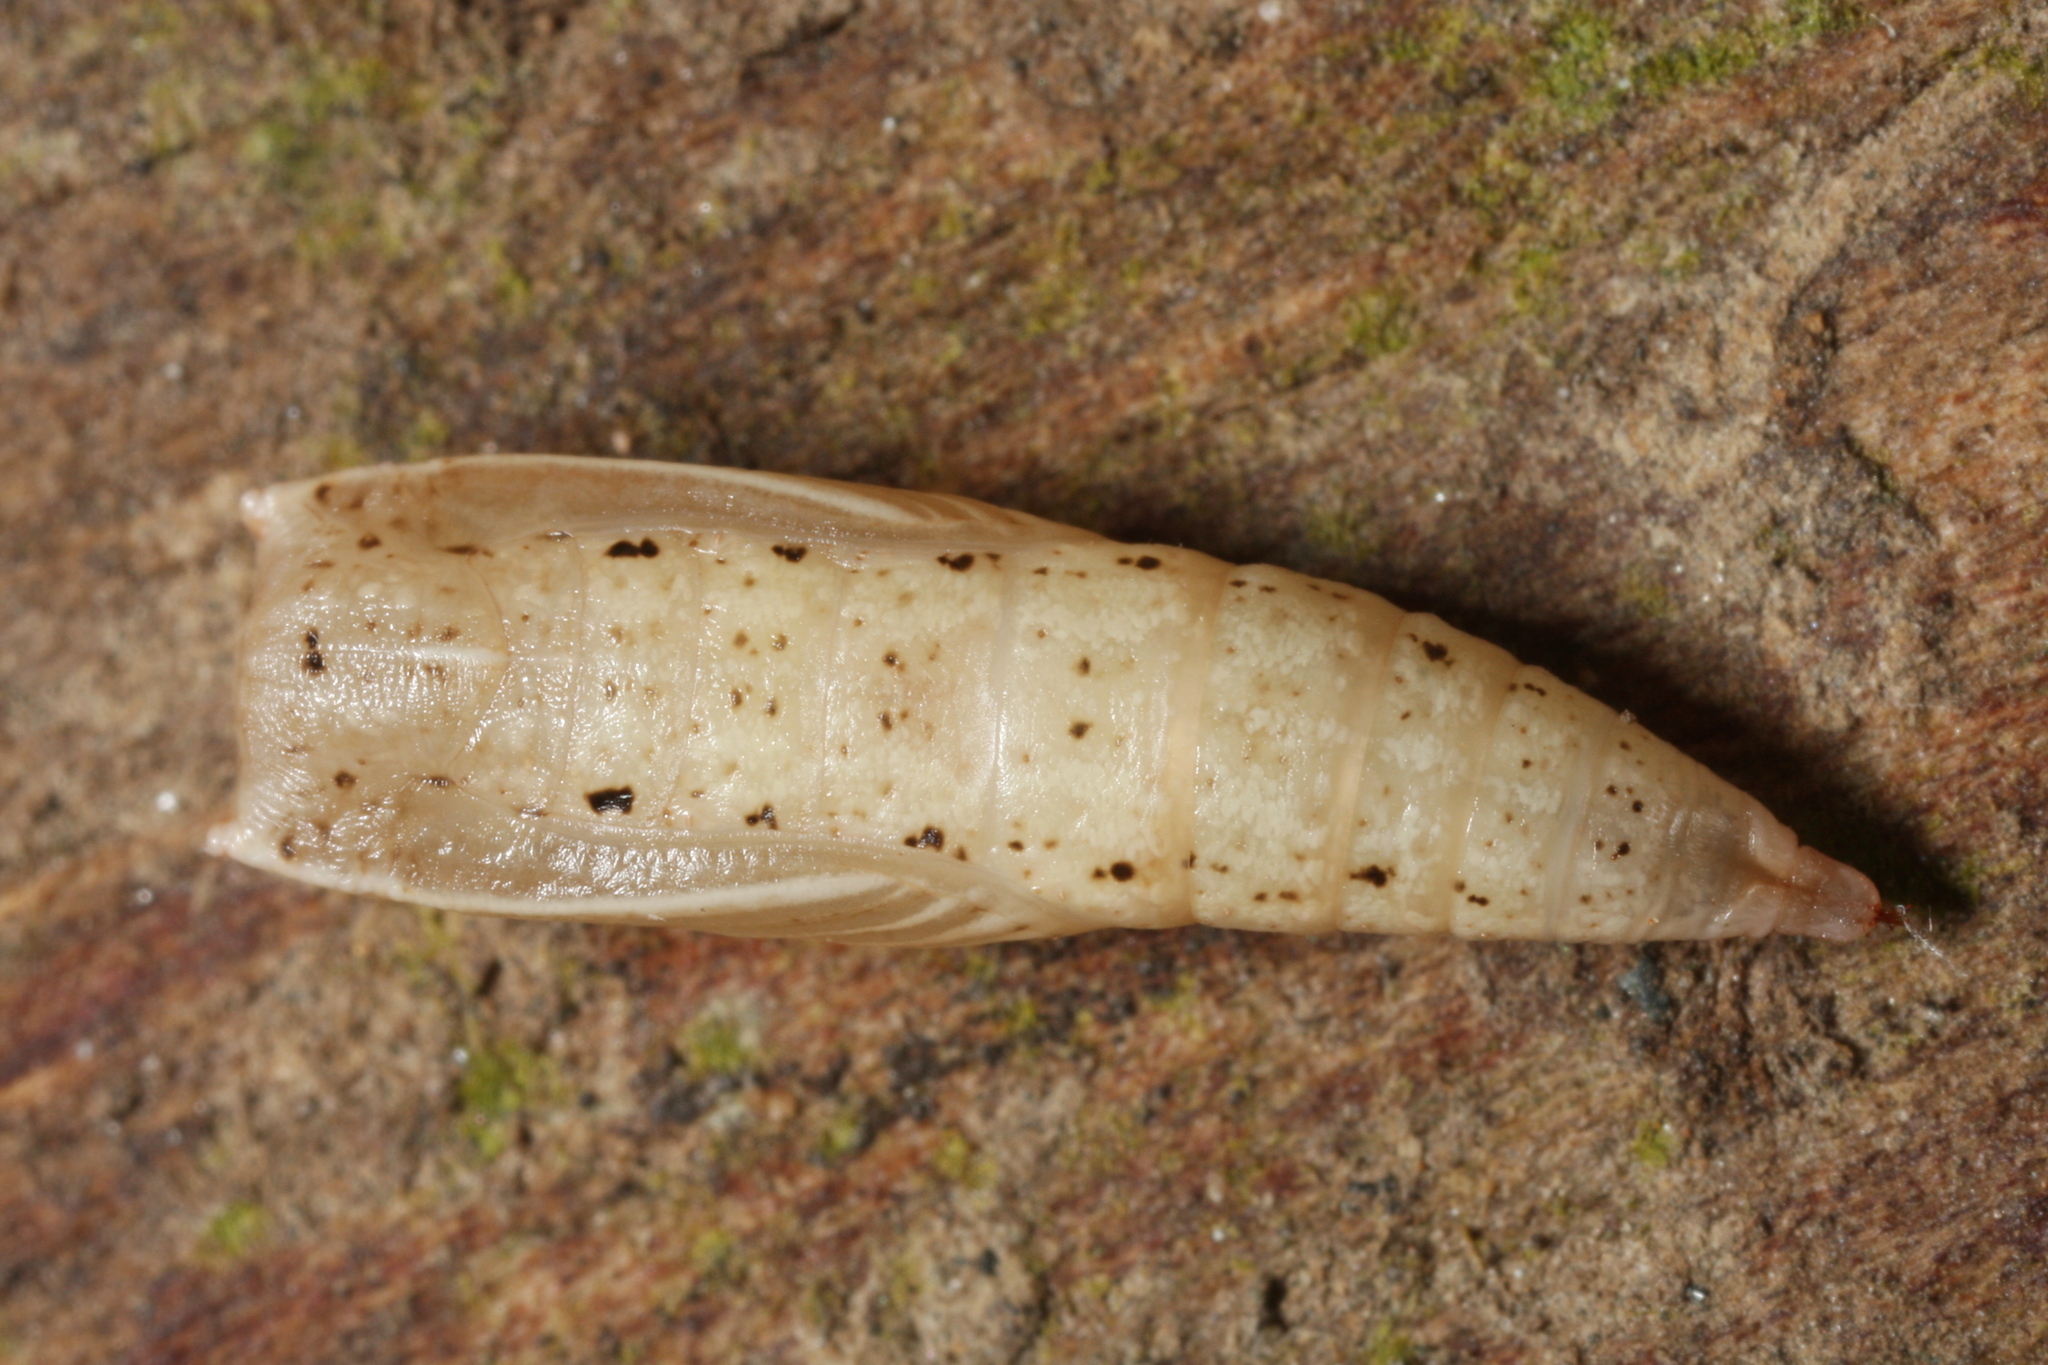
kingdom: Animalia
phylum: Arthropoda
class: Insecta
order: Lepidoptera
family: Geometridae
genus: Cyclophora
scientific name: Cyclophora quercimontaria
